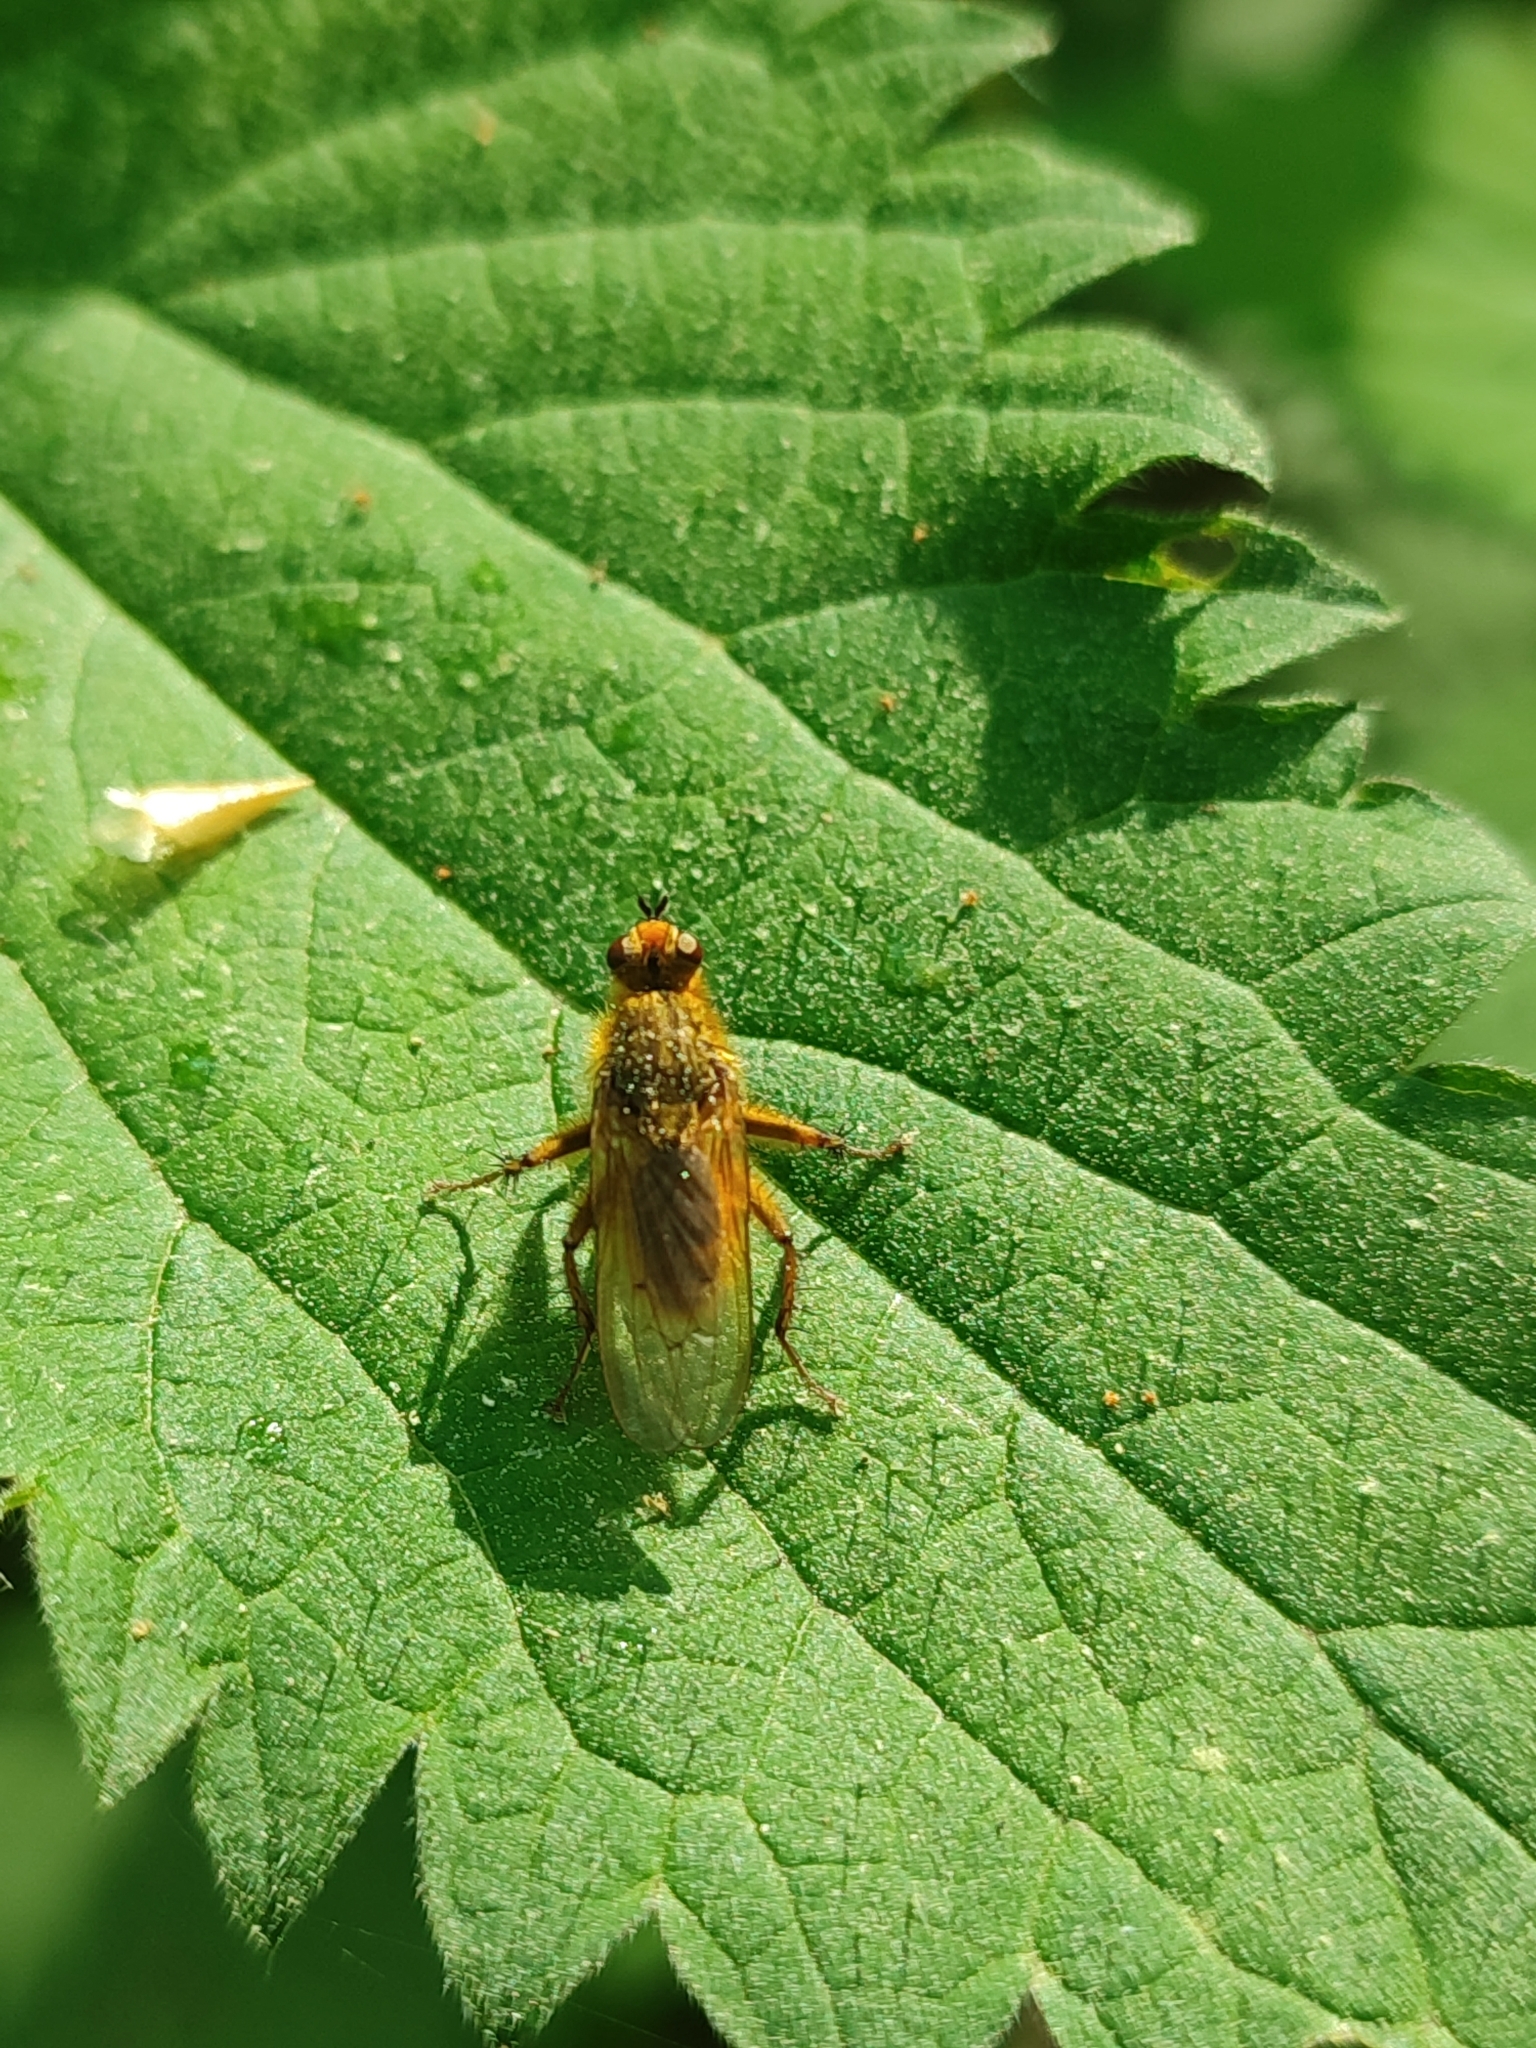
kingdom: Animalia
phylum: Arthropoda
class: Insecta
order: Diptera
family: Scathophagidae
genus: Scathophaga
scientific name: Scathophaga stercoraria
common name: Yellow dung fly
